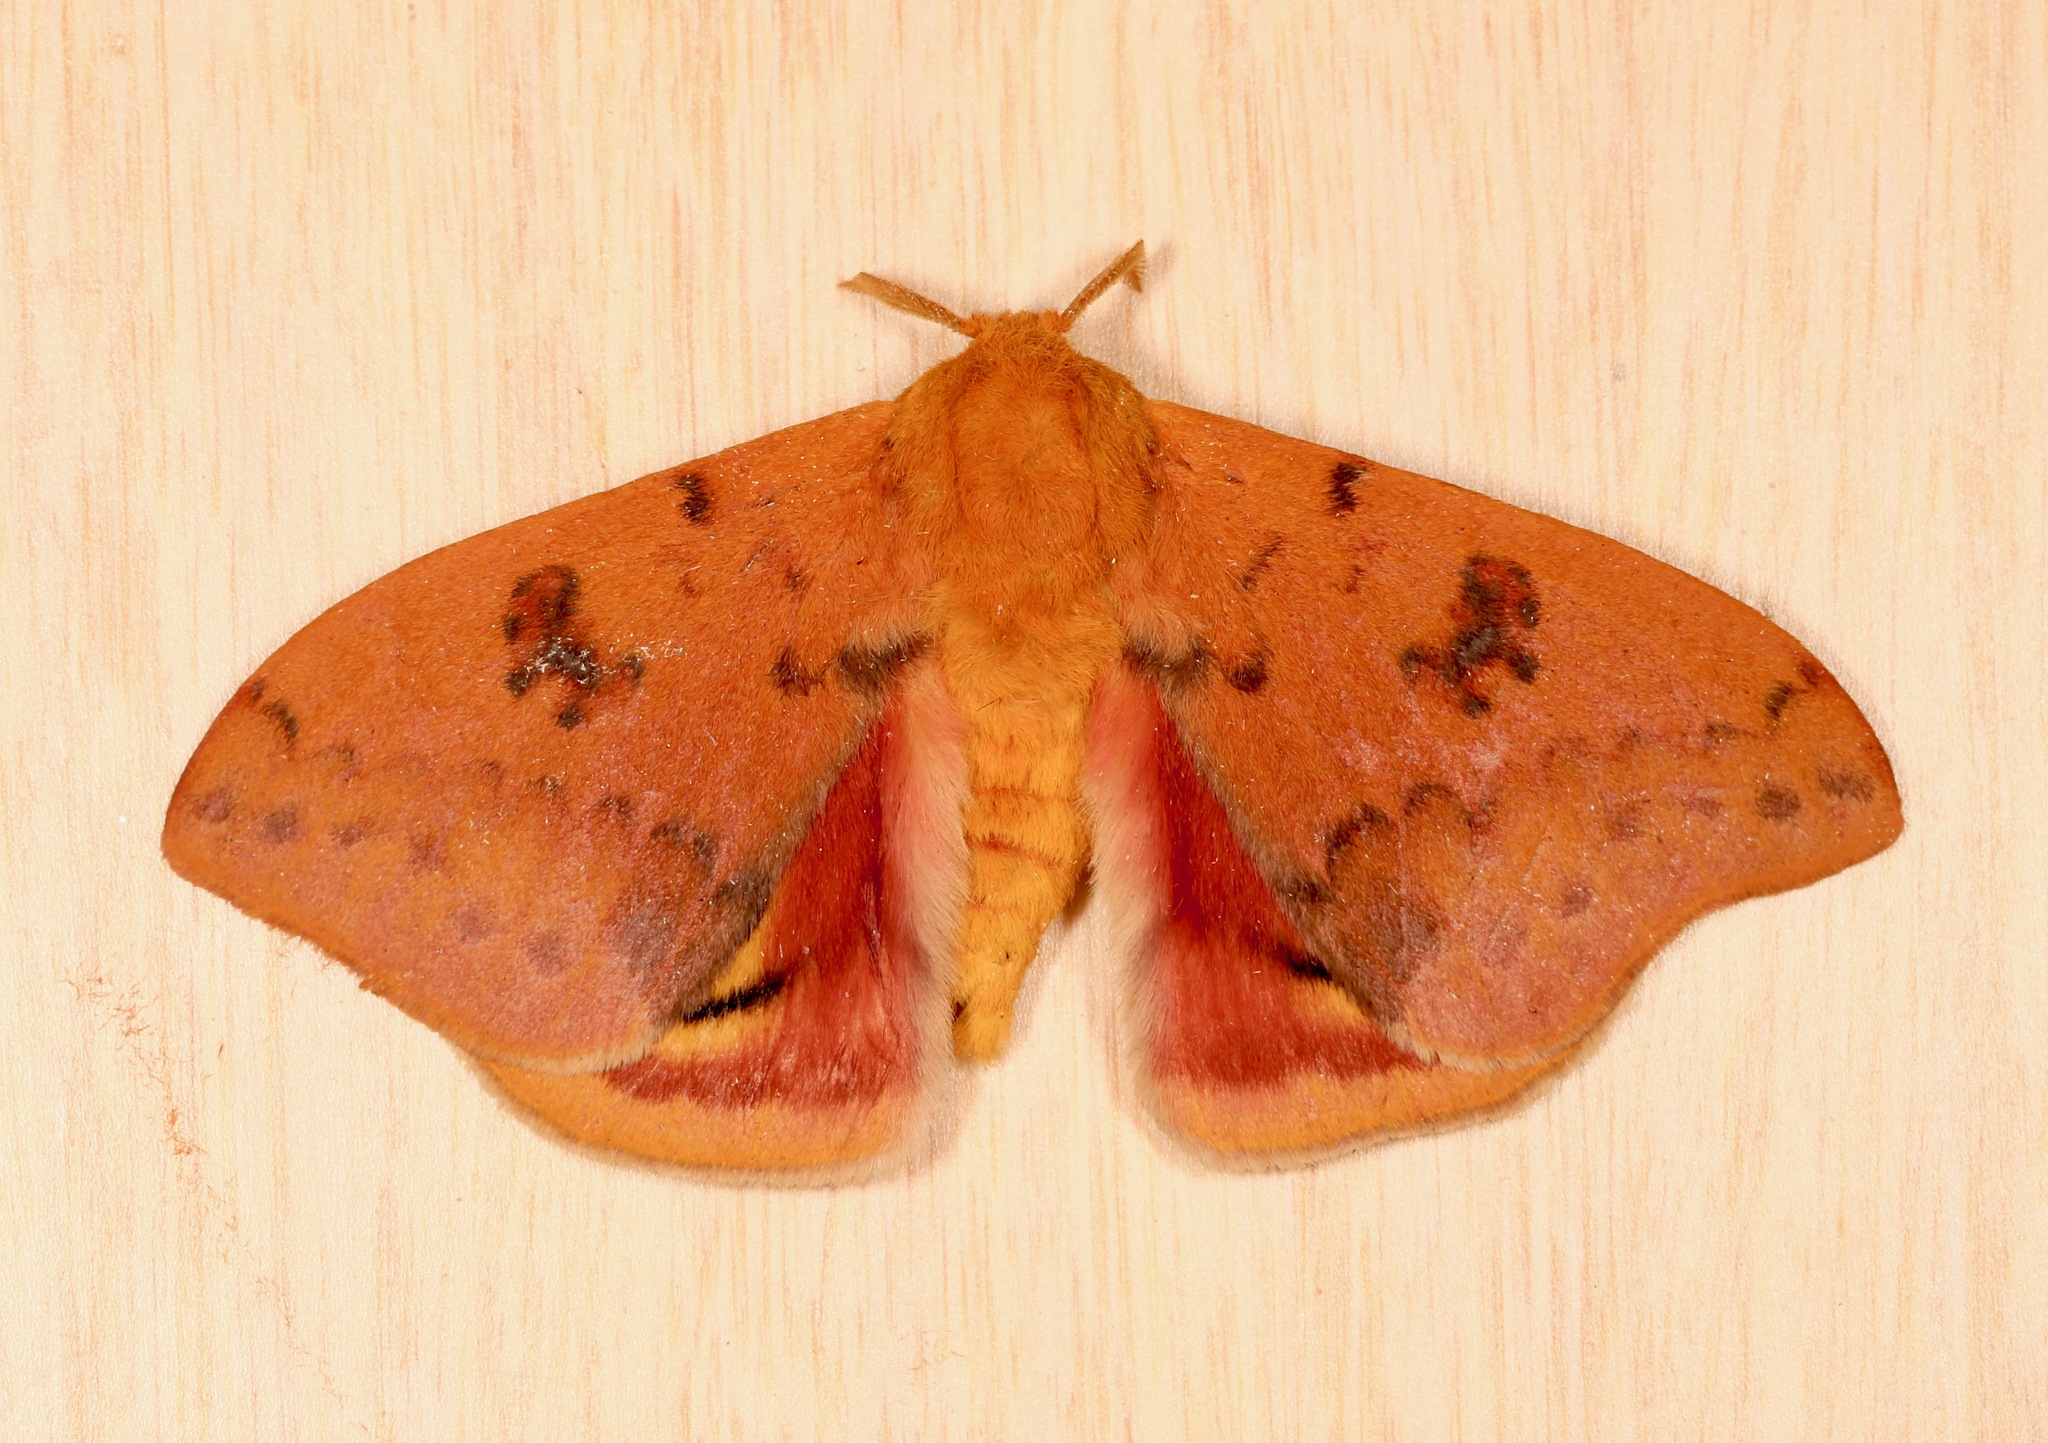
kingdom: Animalia
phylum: Arthropoda
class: Insecta
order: Lepidoptera
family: Saturniidae
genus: Automeris
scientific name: Automeris io
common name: Io moth
